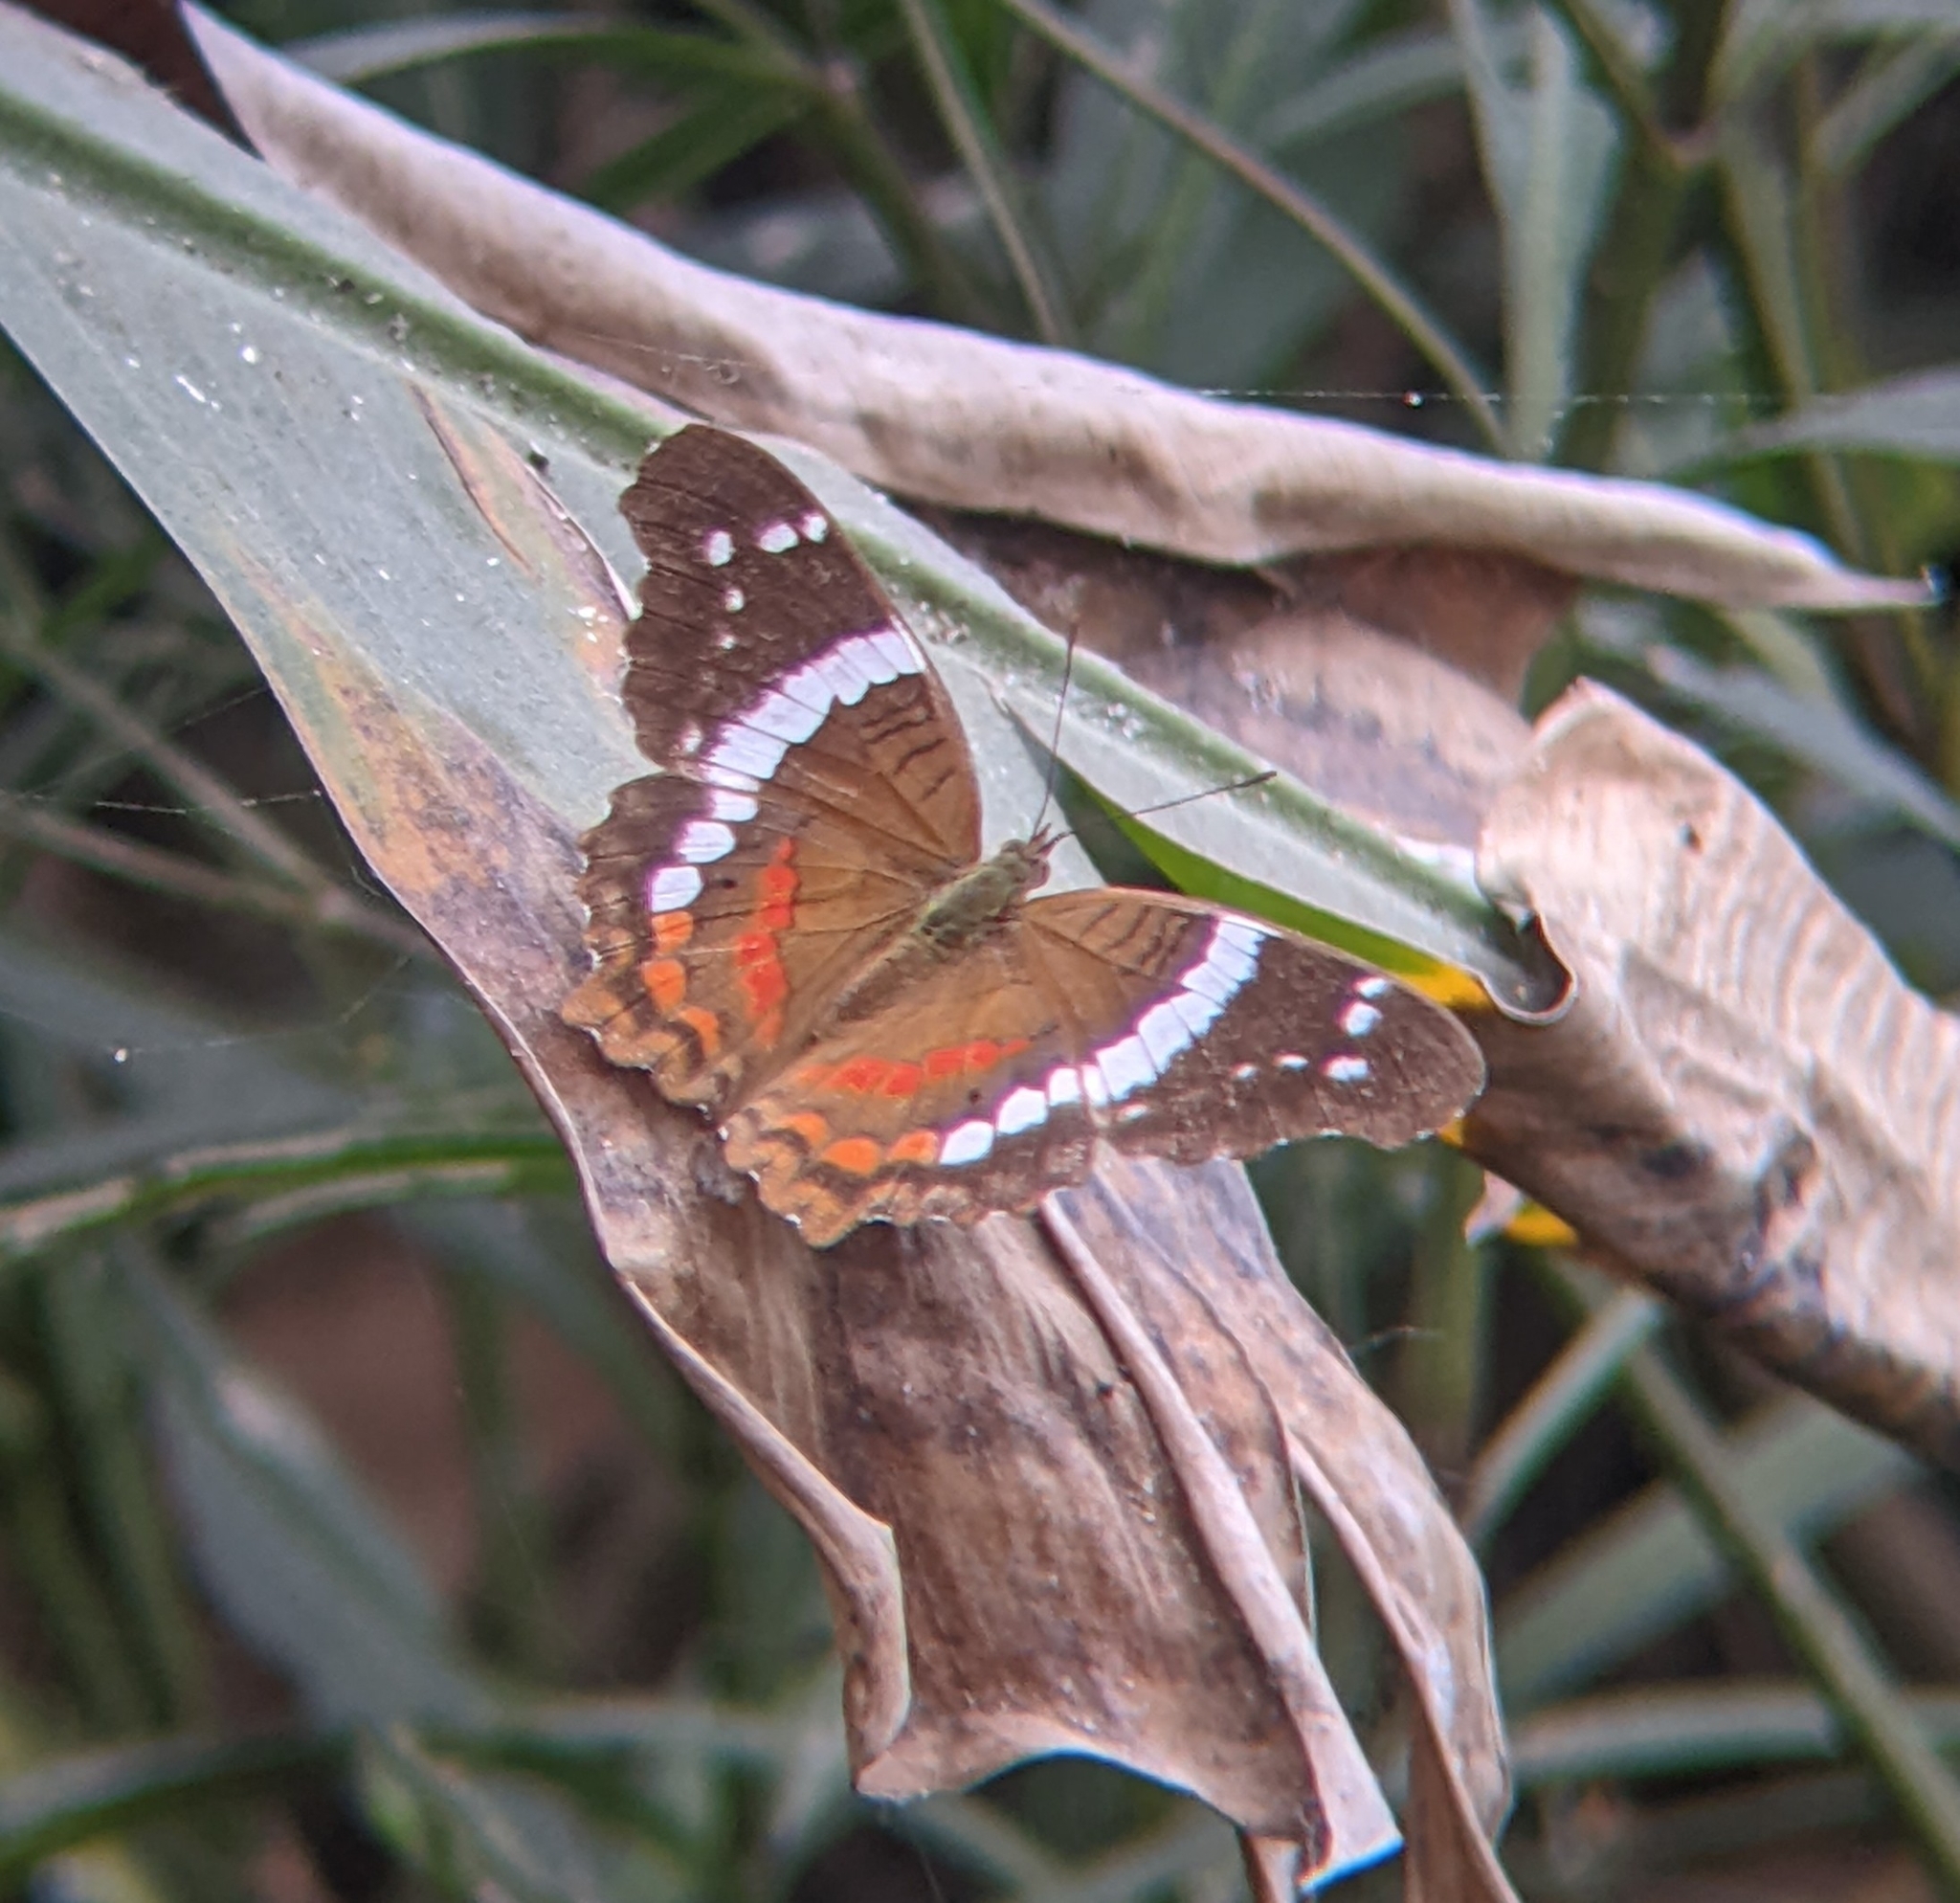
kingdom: Animalia
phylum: Arthropoda
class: Insecta
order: Lepidoptera
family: Nymphalidae
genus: Anartia
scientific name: Anartia fatima
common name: Banded peacock
